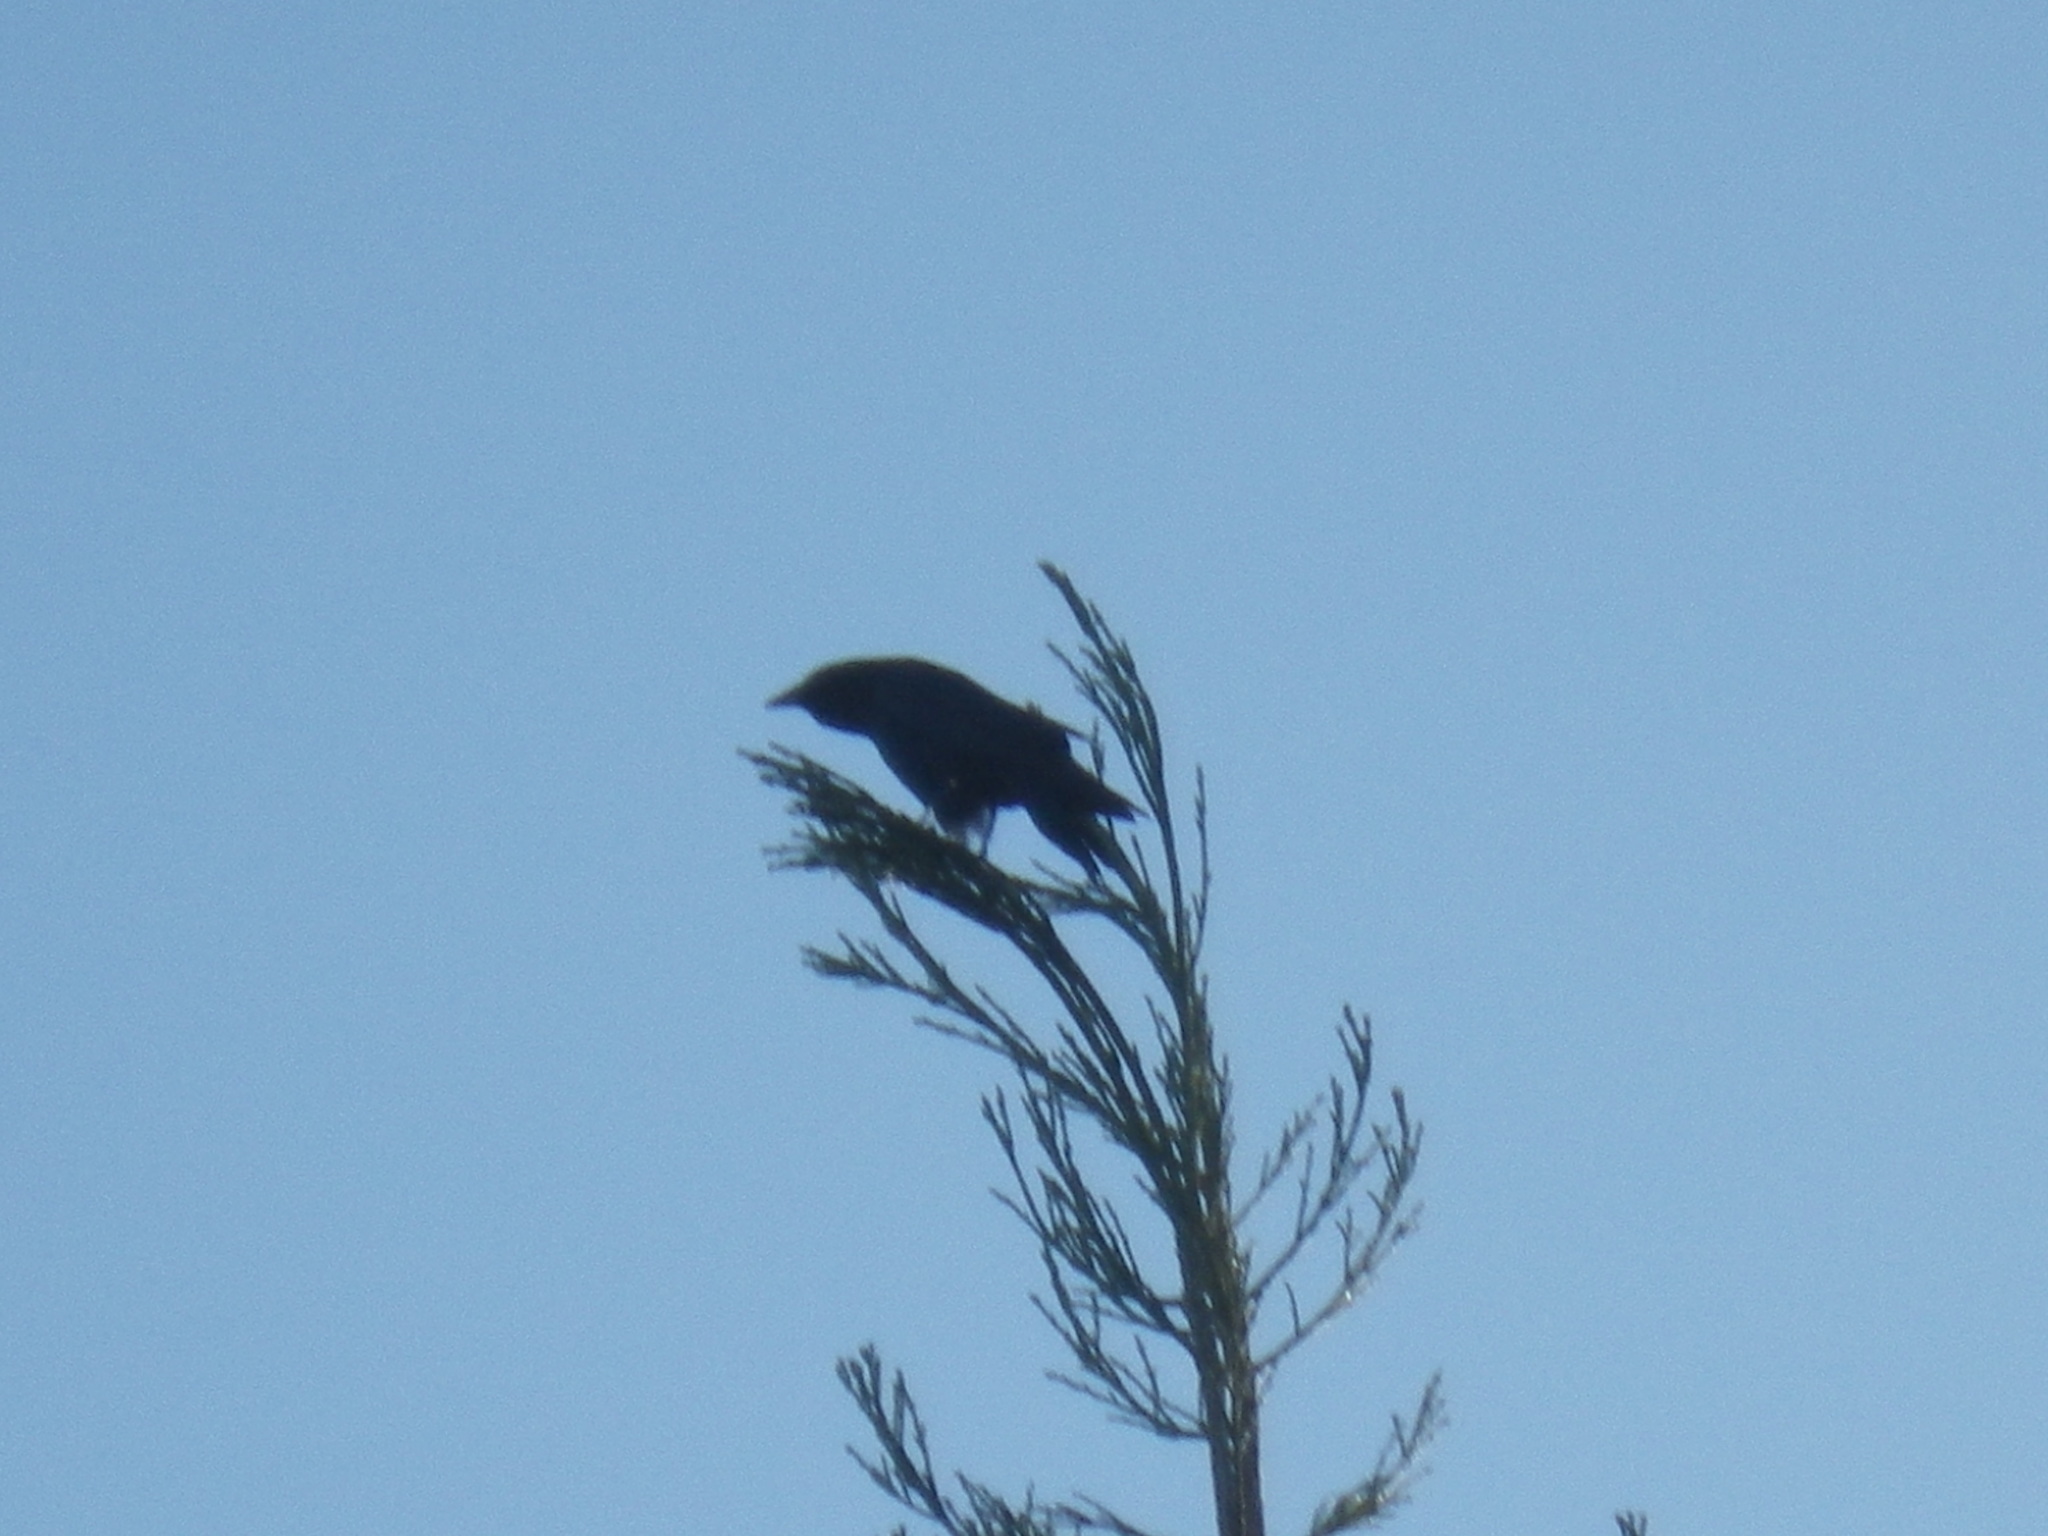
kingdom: Animalia
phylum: Chordata
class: Aves
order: Passeriformes
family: Corvidae
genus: Corvus
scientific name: Corvus brachyrhynchos
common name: American crow
